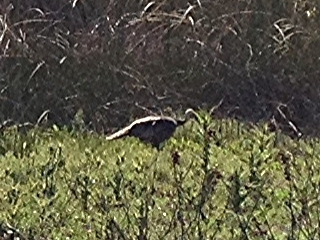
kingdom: Animalia
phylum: Chordata
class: Aves
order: Galliformes
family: Phasianidae
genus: Meleagris
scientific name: Meleagris gallopavo
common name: Wild turkey
